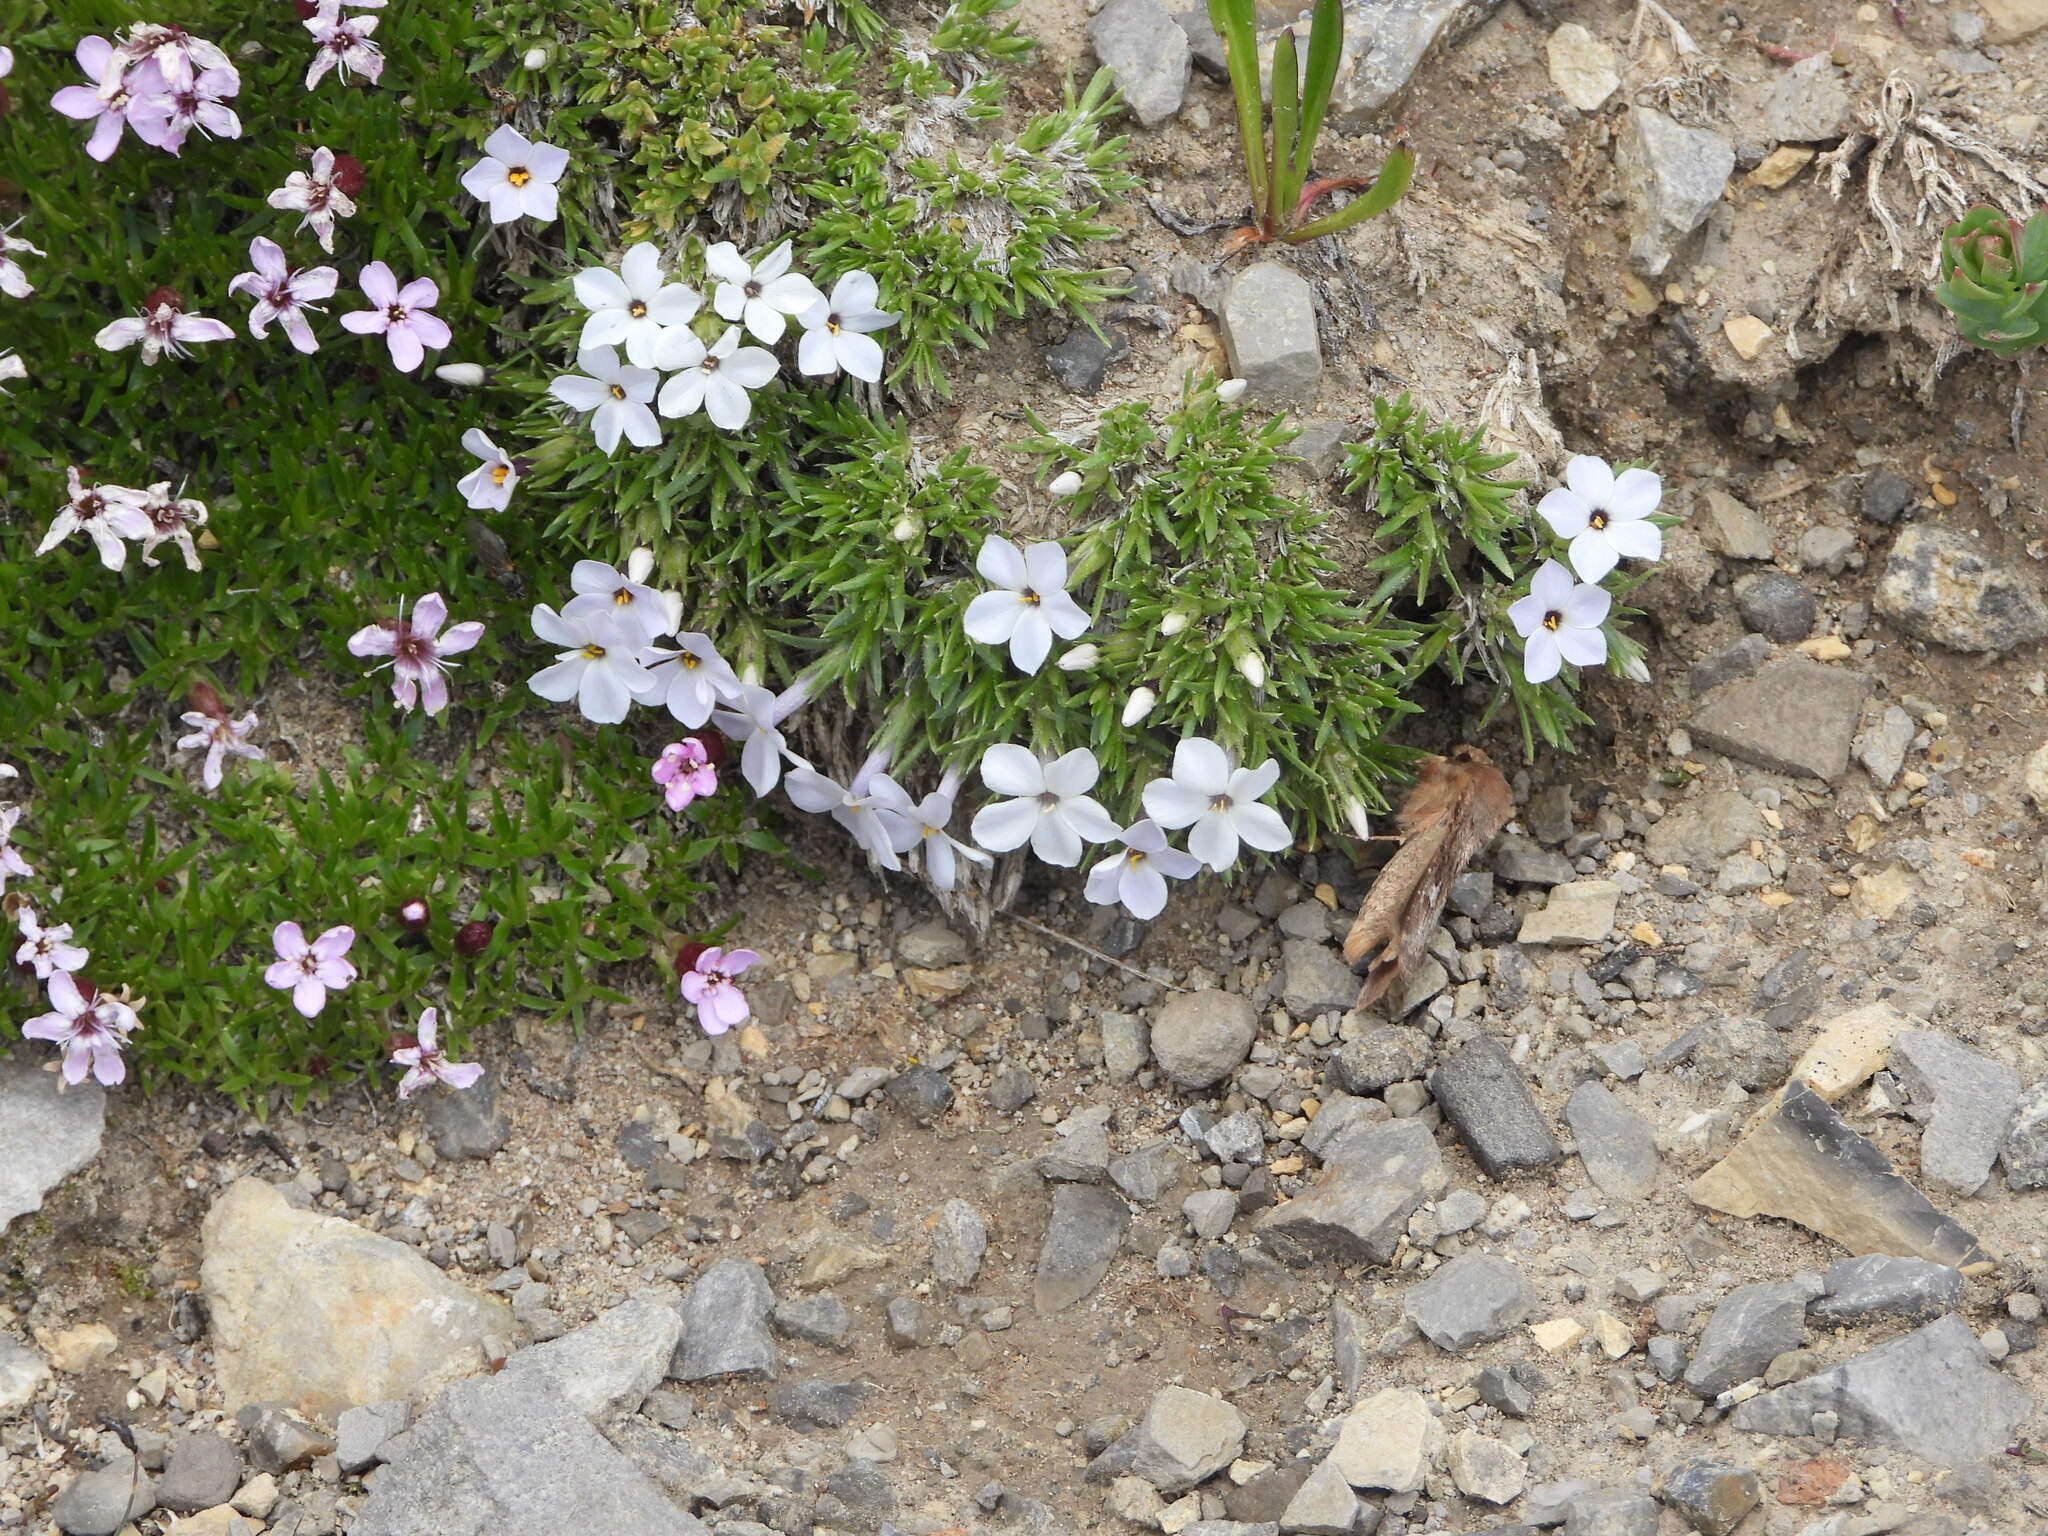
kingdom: Plantae
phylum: Tracheophyta
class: Magnoliopsida
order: Ericales
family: Polemoniaceae
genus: Phlox
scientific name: Phlox condensata
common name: Compact phlox
